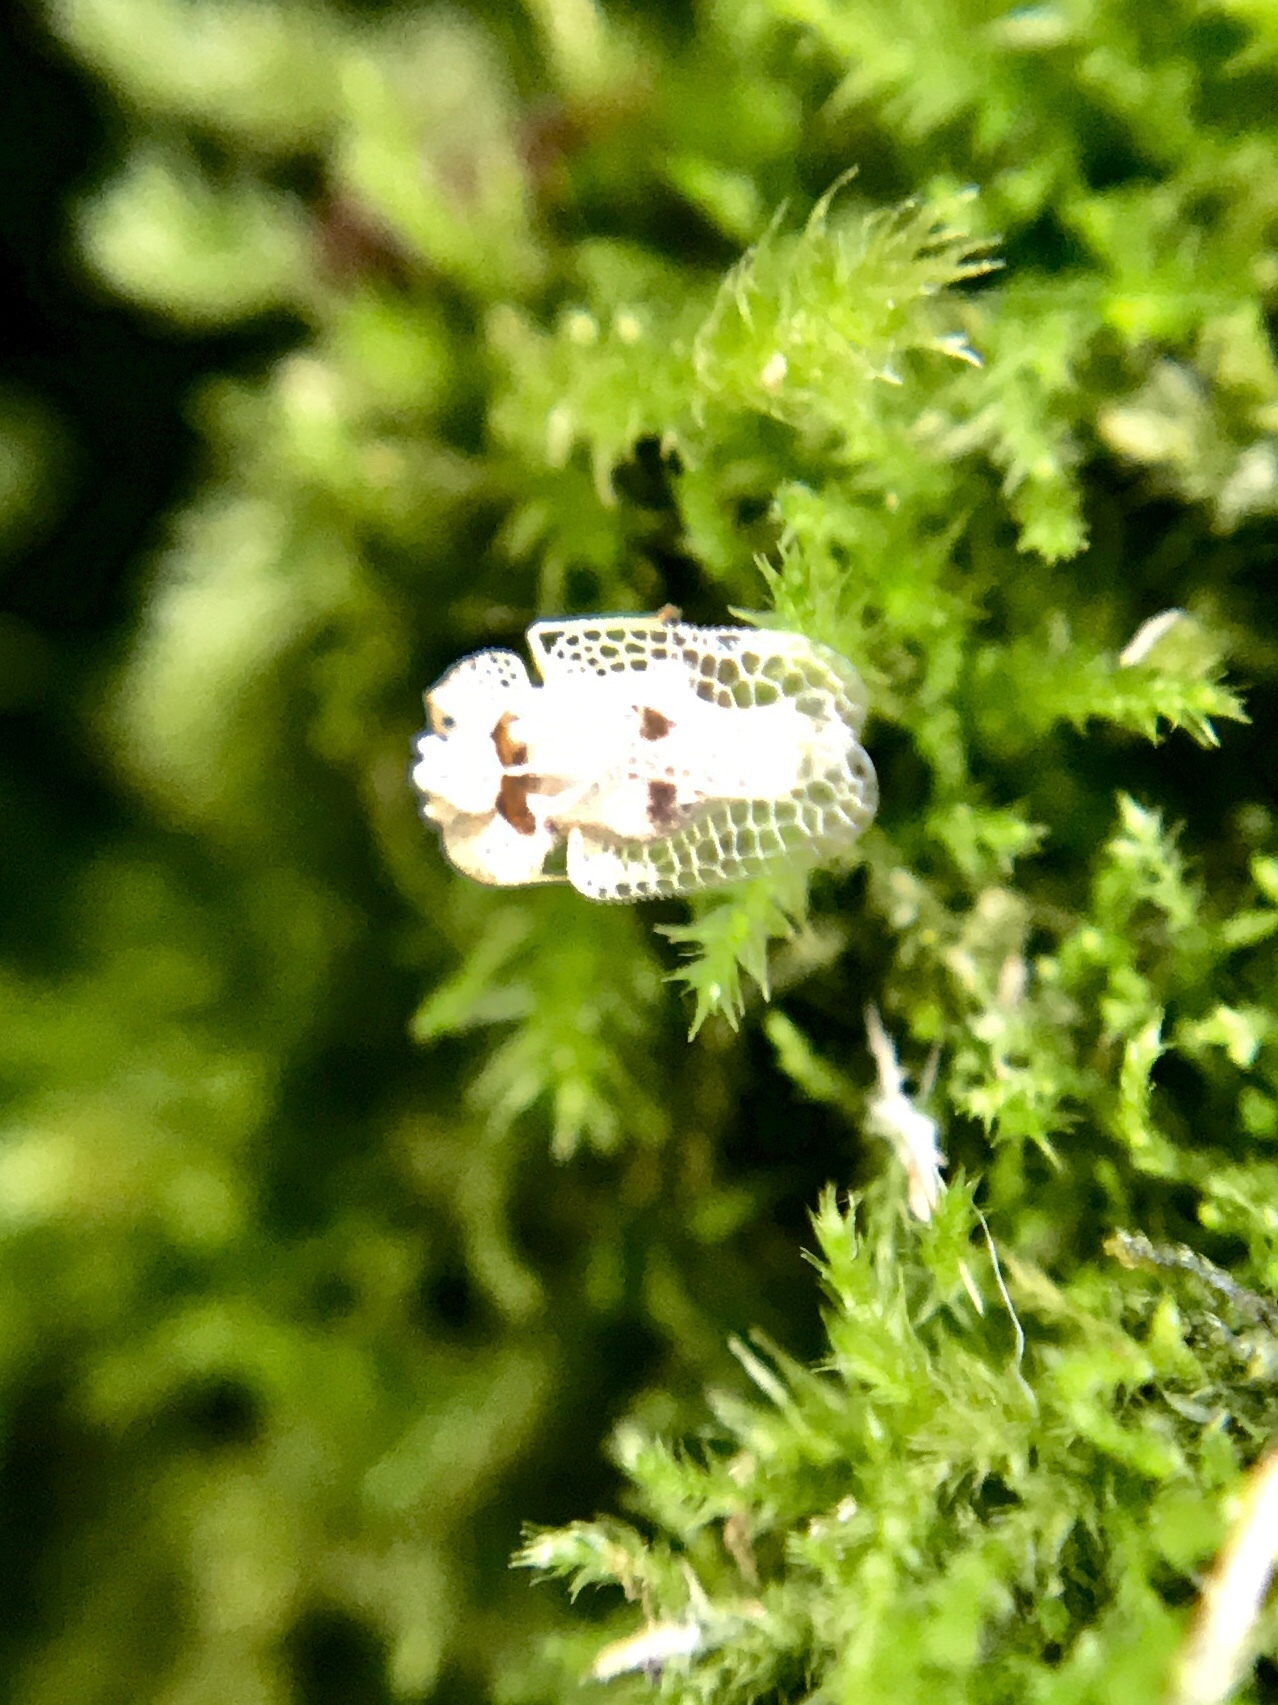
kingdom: Animalia
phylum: Arthropoda
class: Insecta
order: Hemiptera
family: Tingidae
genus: Corythucha
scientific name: Corythucha ciliata
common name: Sycamore lace bug
